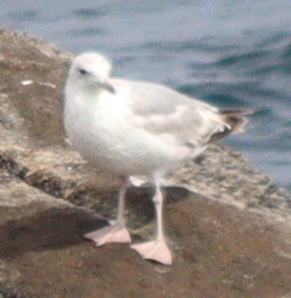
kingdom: Animalia
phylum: Chordata
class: Aves
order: Charadriiformes
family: Laridae
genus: Larus
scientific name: Larus argentatus
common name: Herring gull
